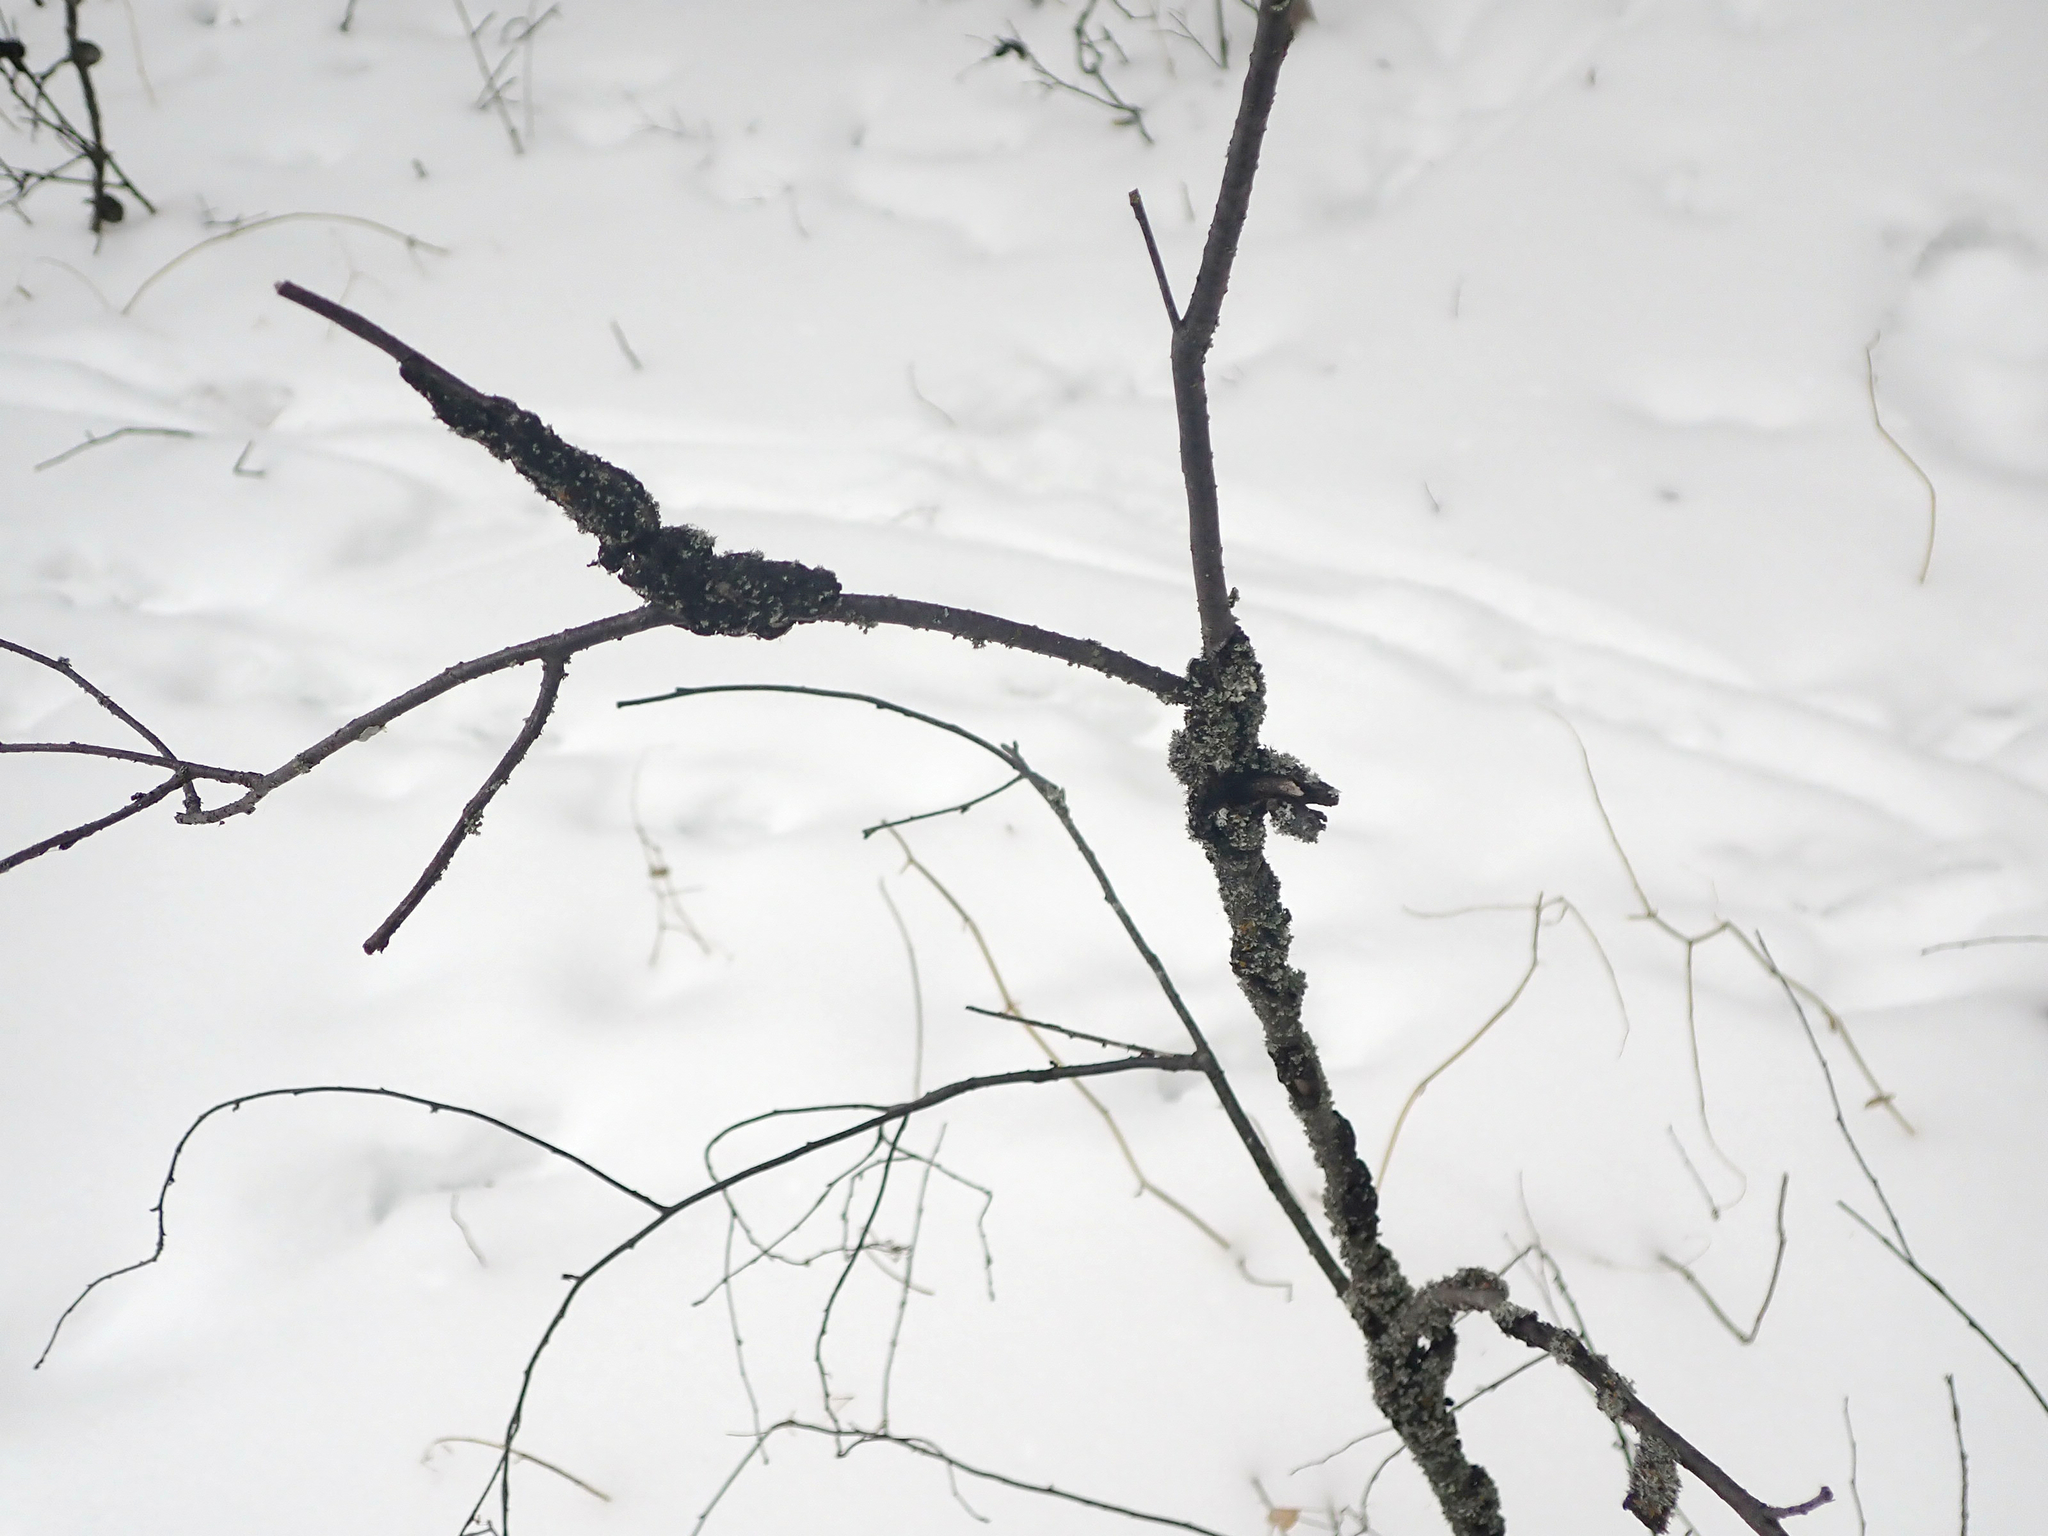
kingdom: Fungi
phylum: Ascomycota
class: Dothideomycetes
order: Venturiales
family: Venturiaceae
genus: Apiosporina
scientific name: Apiosporina morbosa
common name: Black knot
